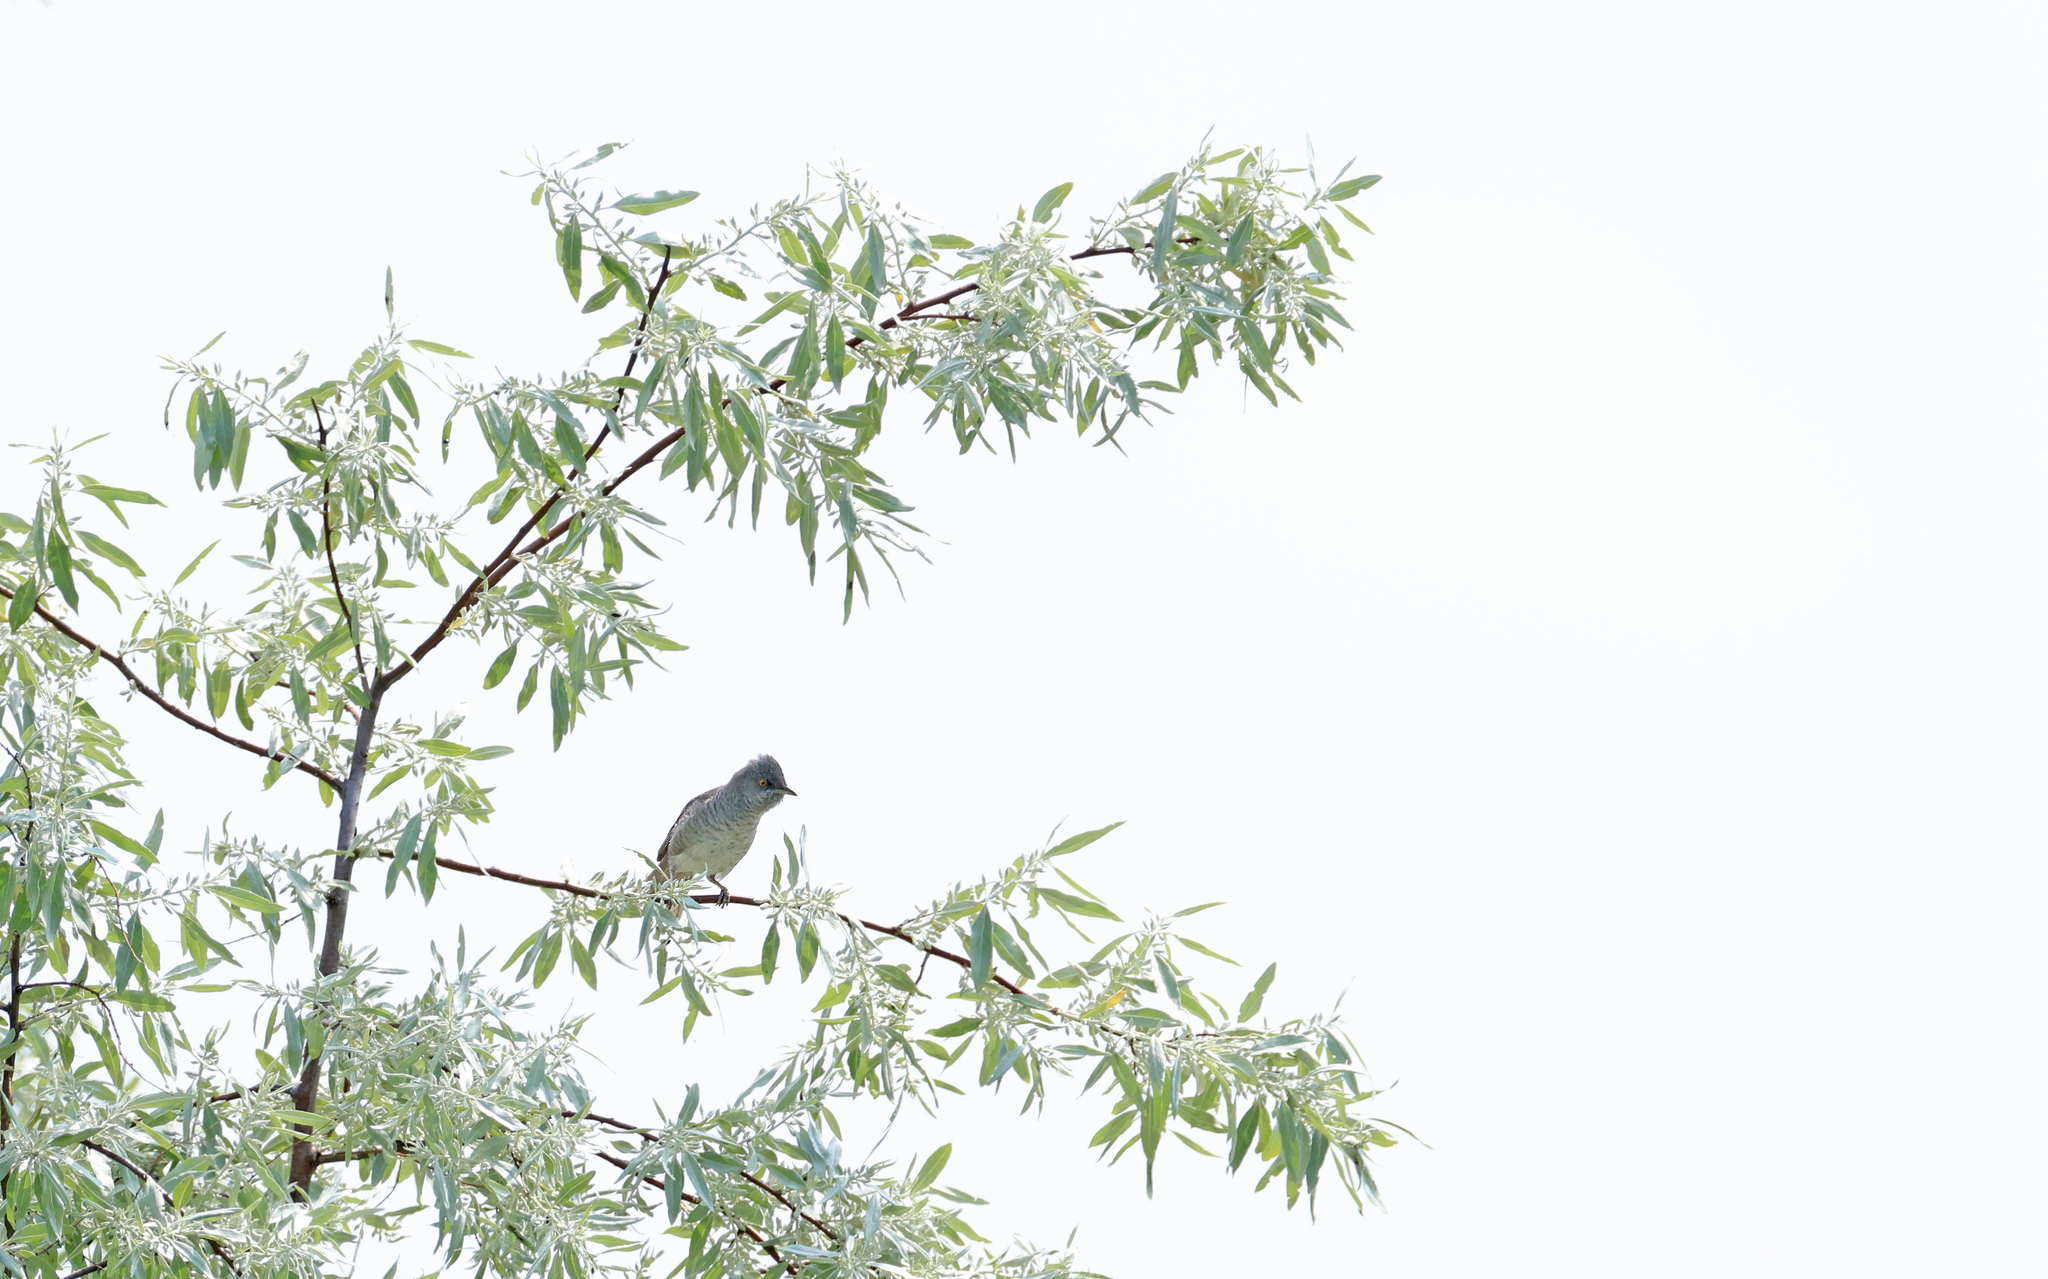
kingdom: Animalia
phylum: Chordata
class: Aves
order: Passeriformes
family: Sylviidae
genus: Sylvia
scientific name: Sylvia nisoria
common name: Barred warbler
